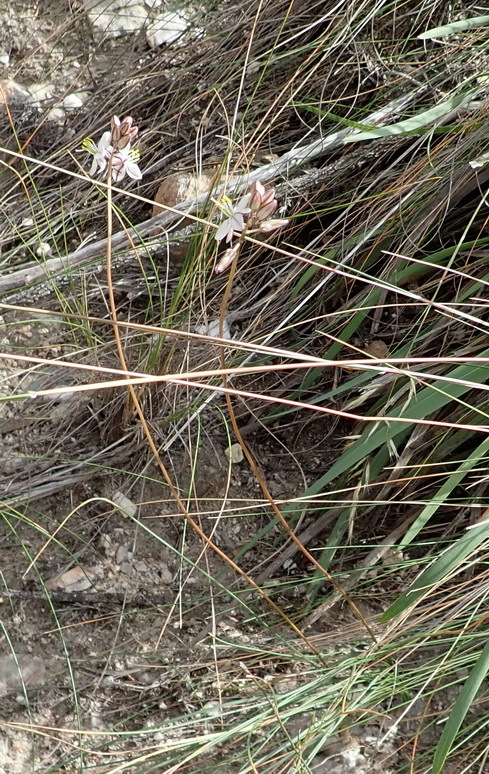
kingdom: Plantae
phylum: Tracheophyta
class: Liliopsida
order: Asparagales
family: Asparagaceae
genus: Drimia
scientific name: Drimia exuviata
